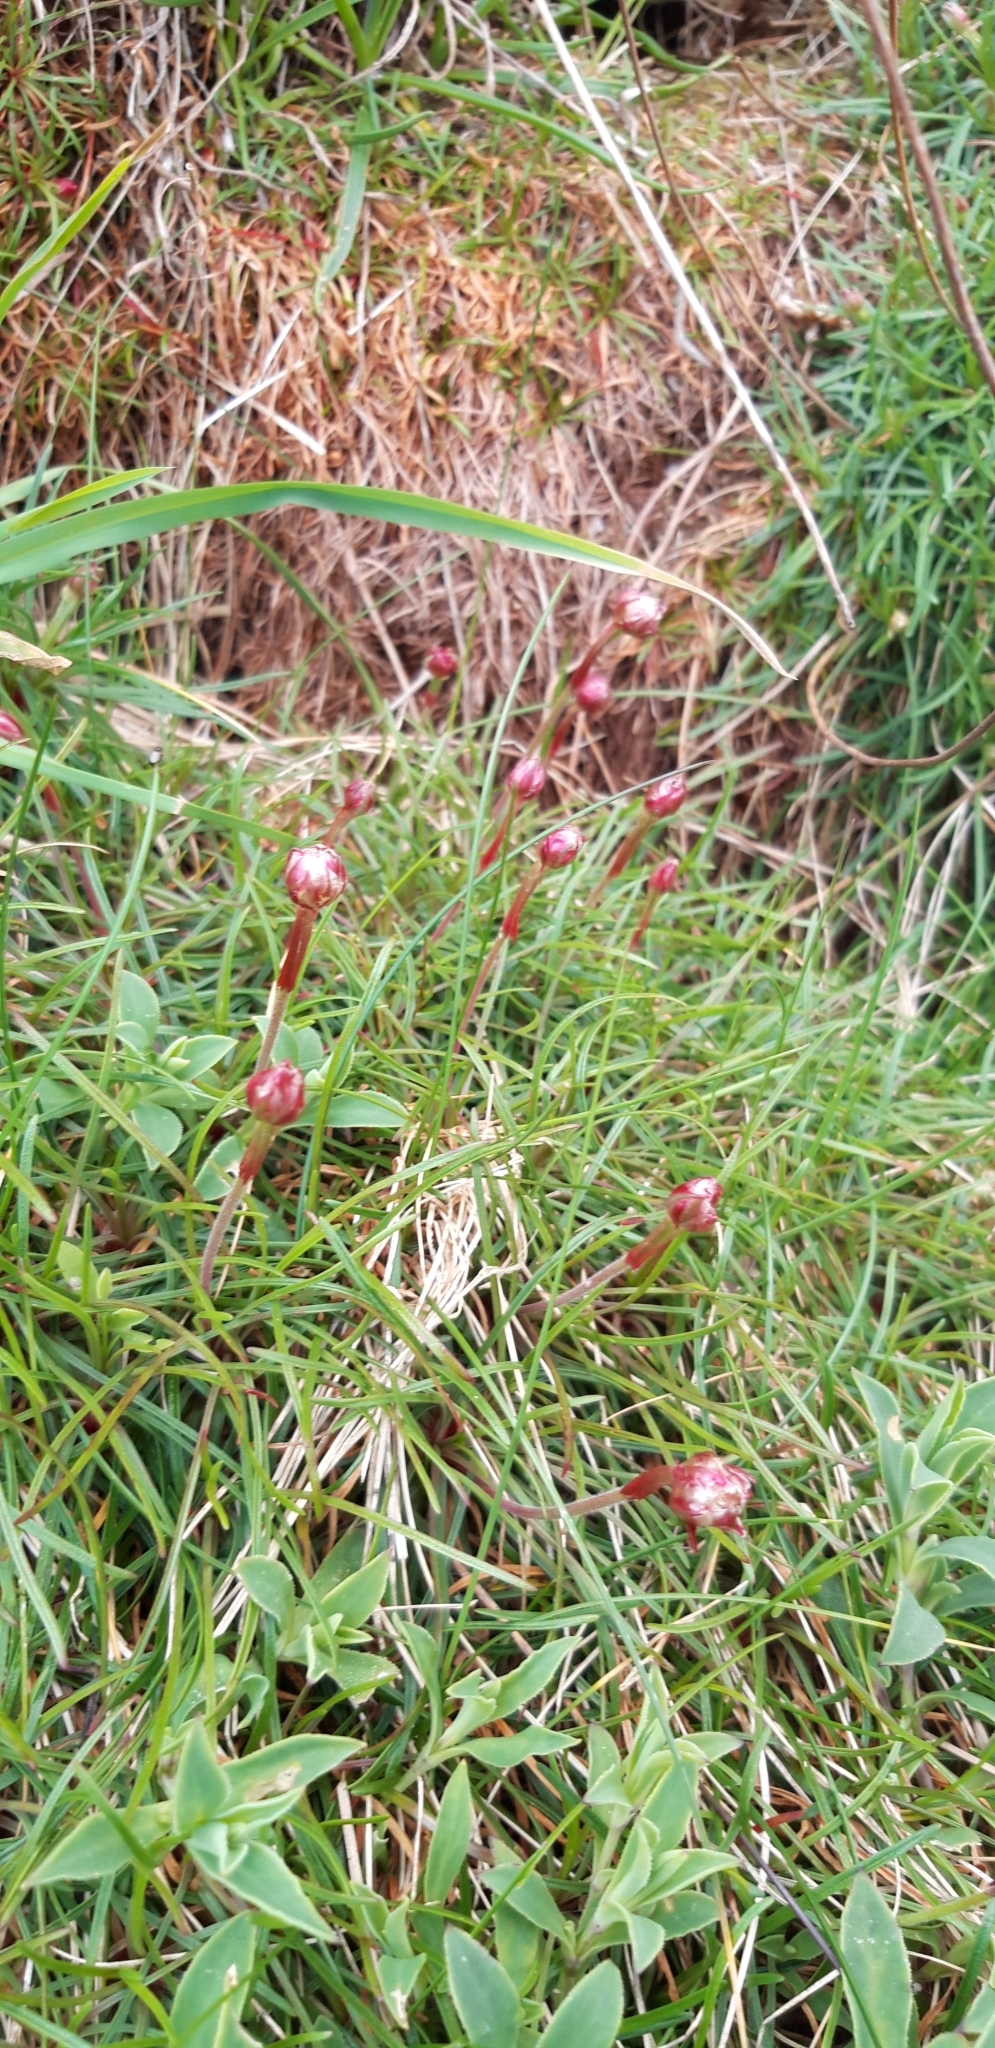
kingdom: Plantae
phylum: Tracheophyta
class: Magnoliopsida
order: Caryophyllales
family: Plumbaginaceae
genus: Armeria
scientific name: Armeria maritima
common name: Thrift
